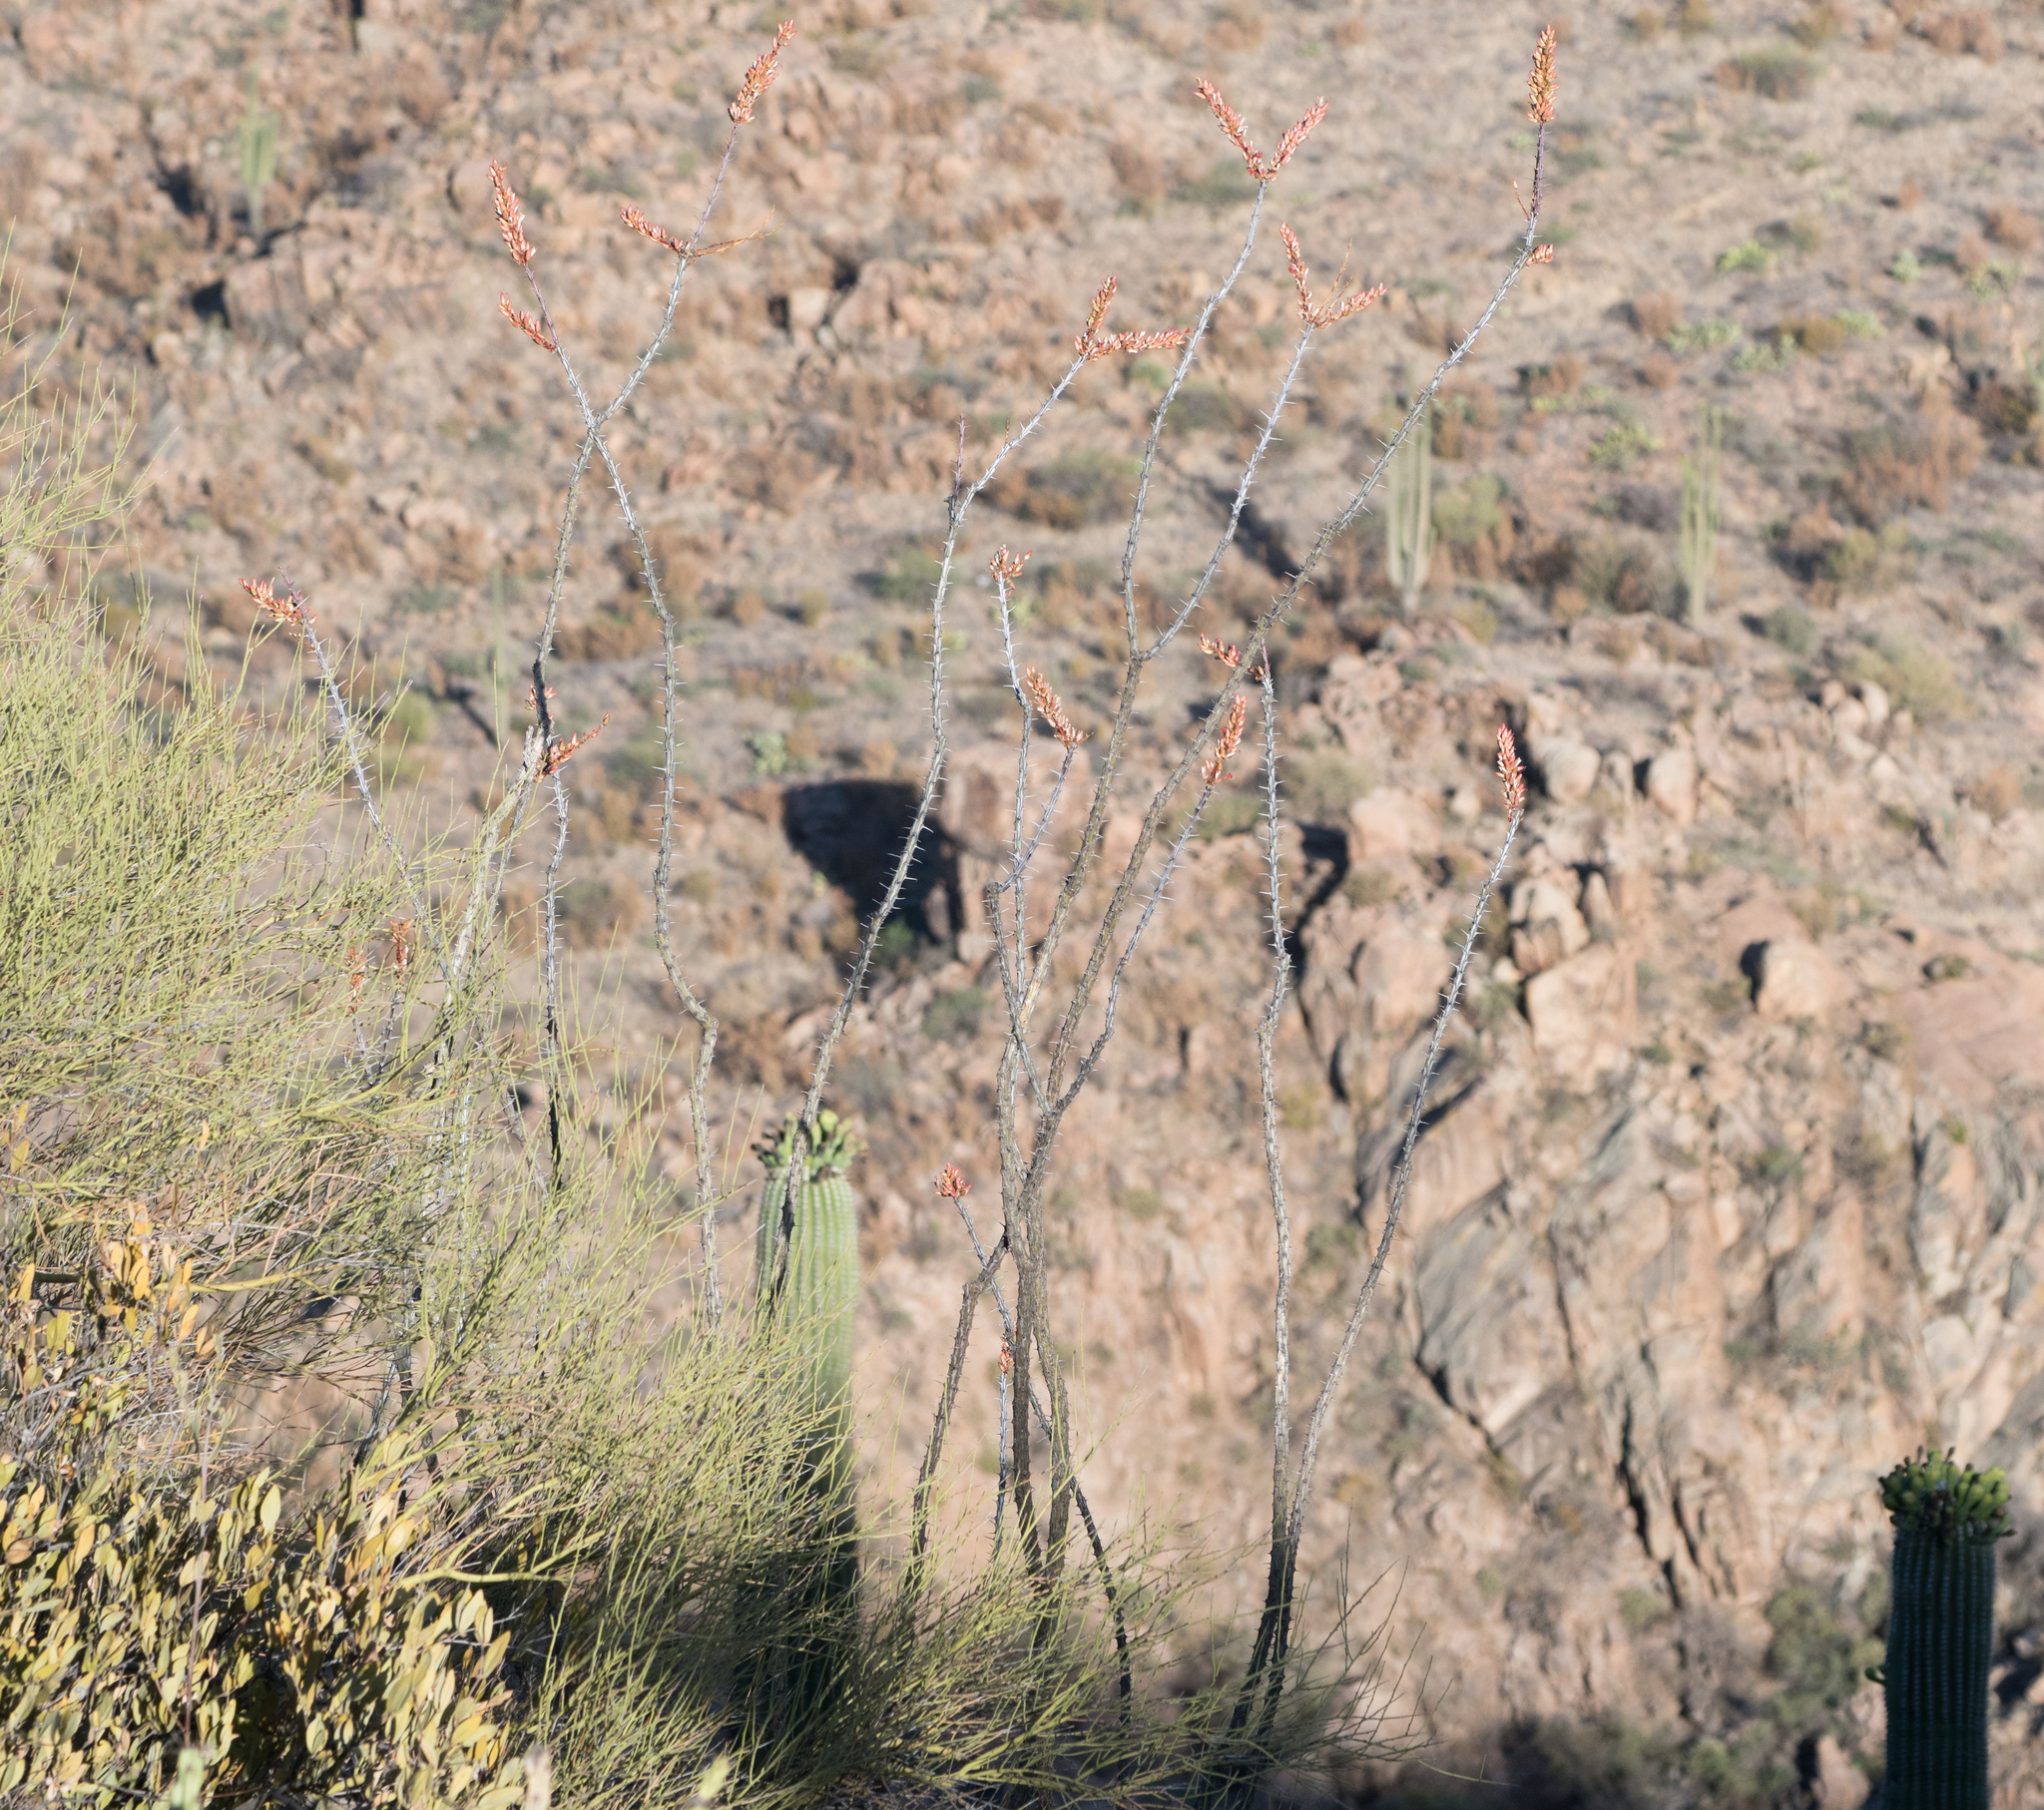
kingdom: Plantae
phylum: Tracheophyta
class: Magnoliopsida
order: Ericales
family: Fouquieriaceae
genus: Fouquieria
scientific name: Fouquieria splendens
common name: Vine-cactus
